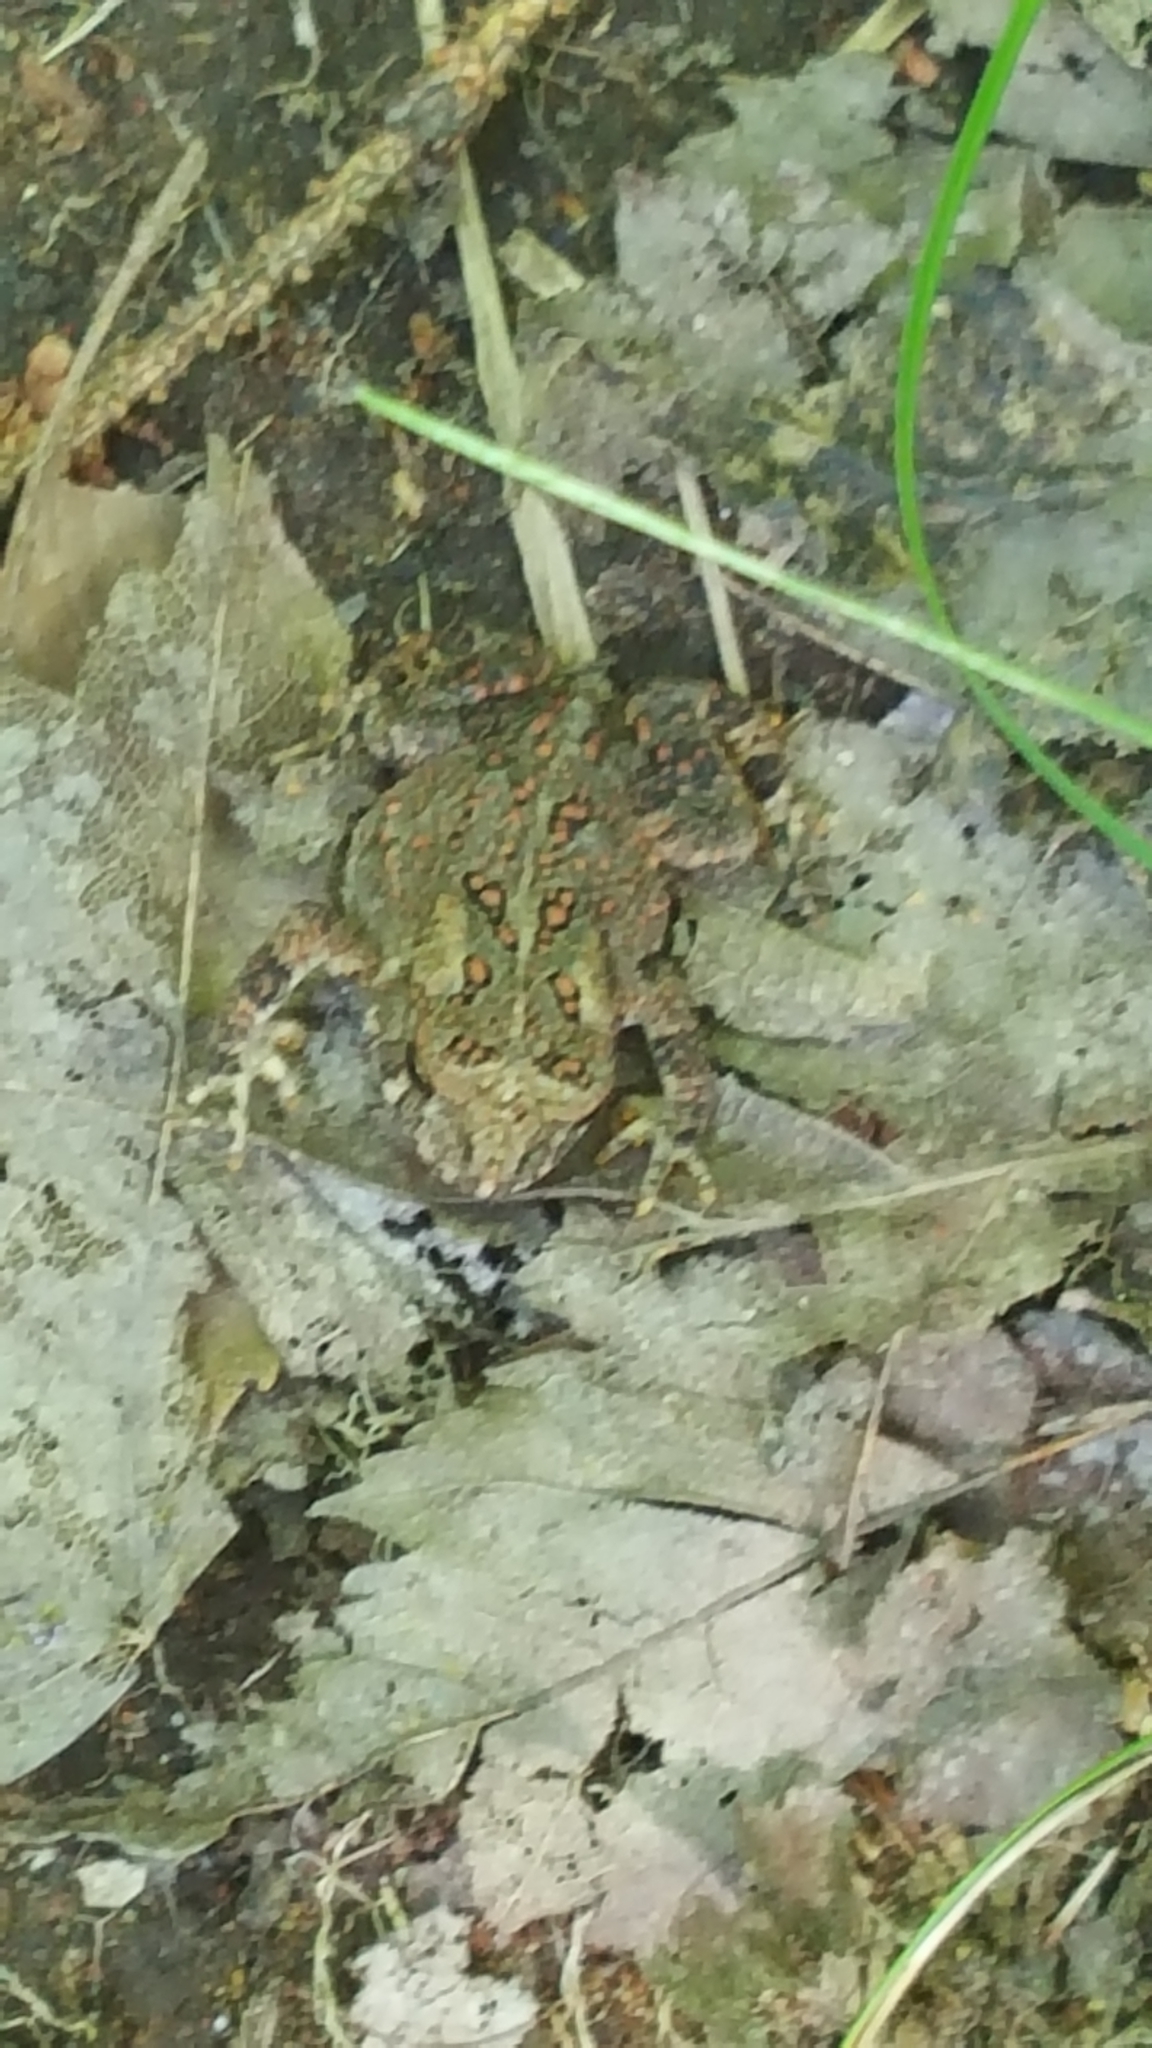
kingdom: Animalia
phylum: Chordata
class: Amphibia
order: Anura
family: Bufonidae
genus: Anaxyrus
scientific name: Anaxyrus americanus
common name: American toad
